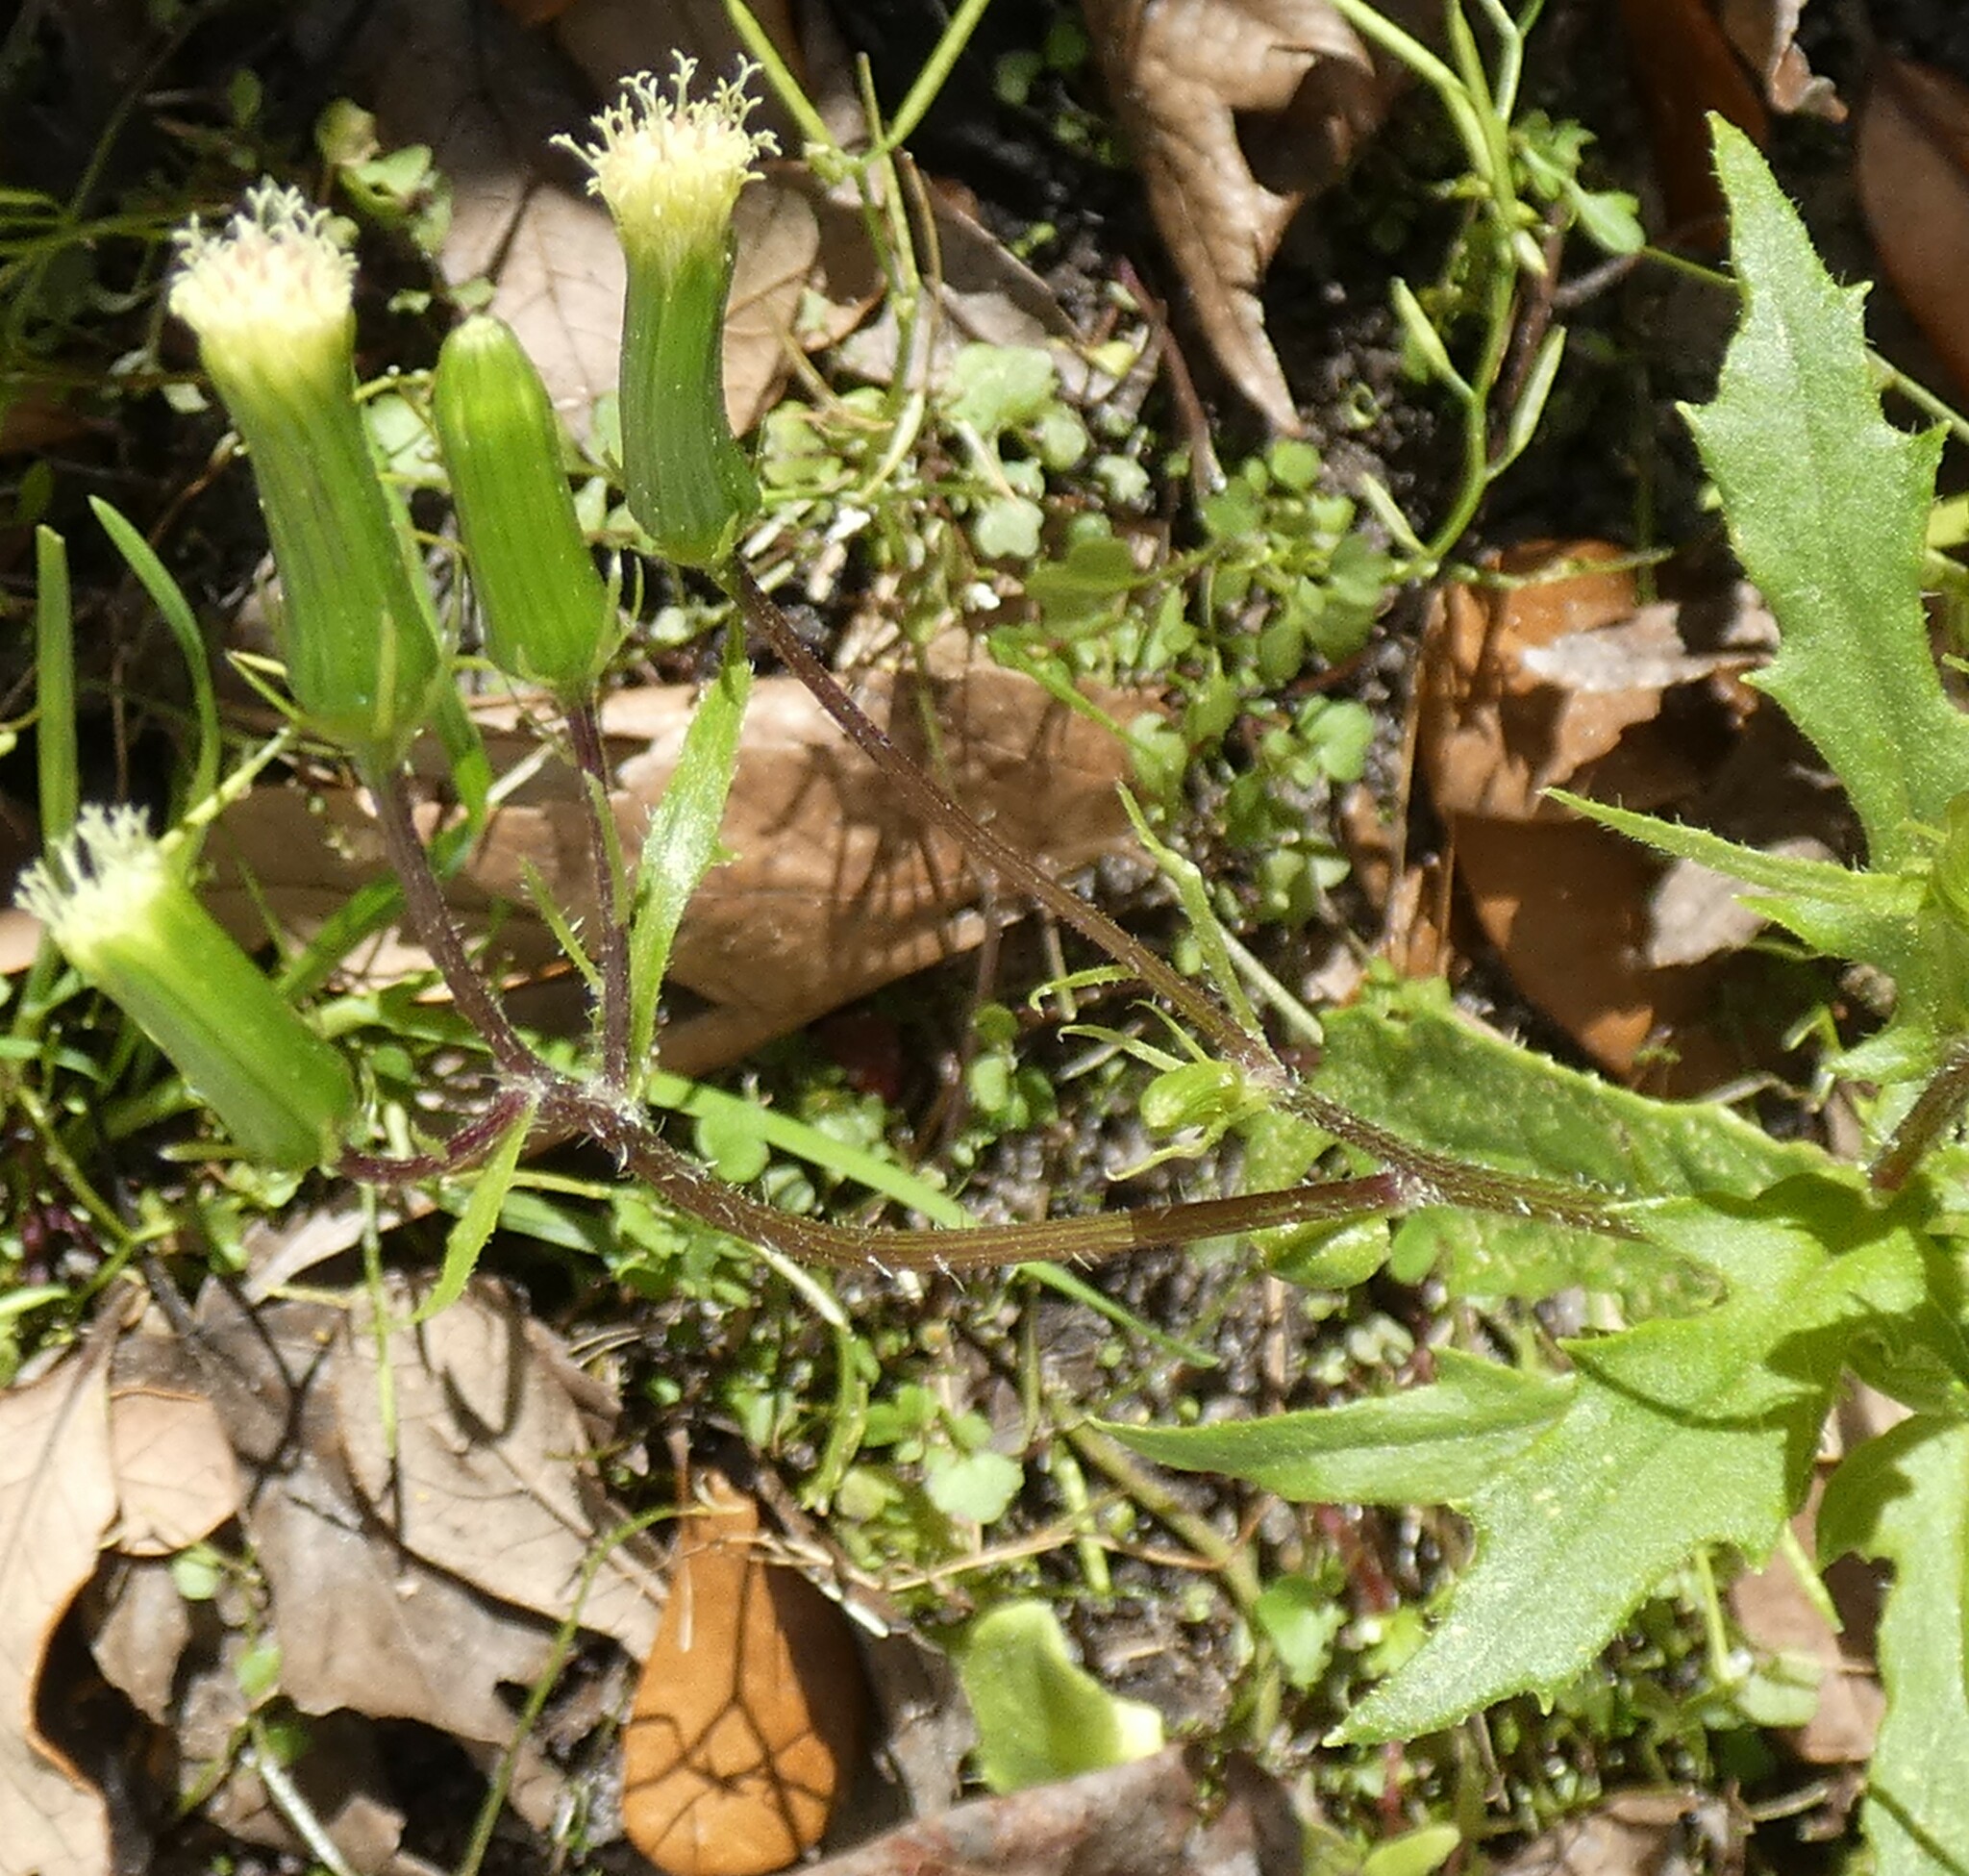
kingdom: Plantae
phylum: Tracheophyta
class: Magnoliopsida
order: Asterales
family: Asteraceae
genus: Erechtites
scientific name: Erechtites hieraciifolius
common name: American burnweed
